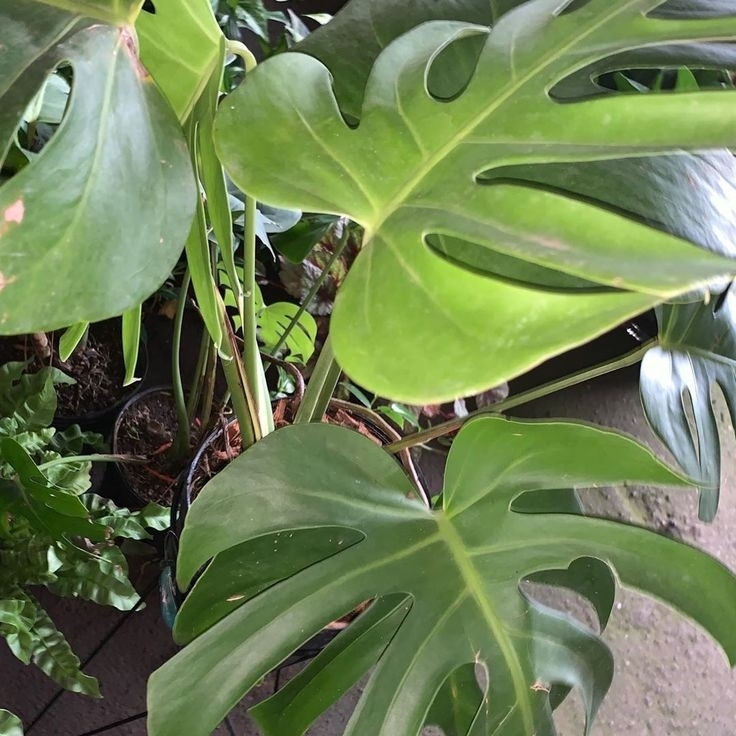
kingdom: Plantae
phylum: Tracheophyta
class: Liliopsida
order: Alismatales
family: Araceae
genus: Monstera
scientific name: Monstera deliciosa
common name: Cut-leaf-philodendron
